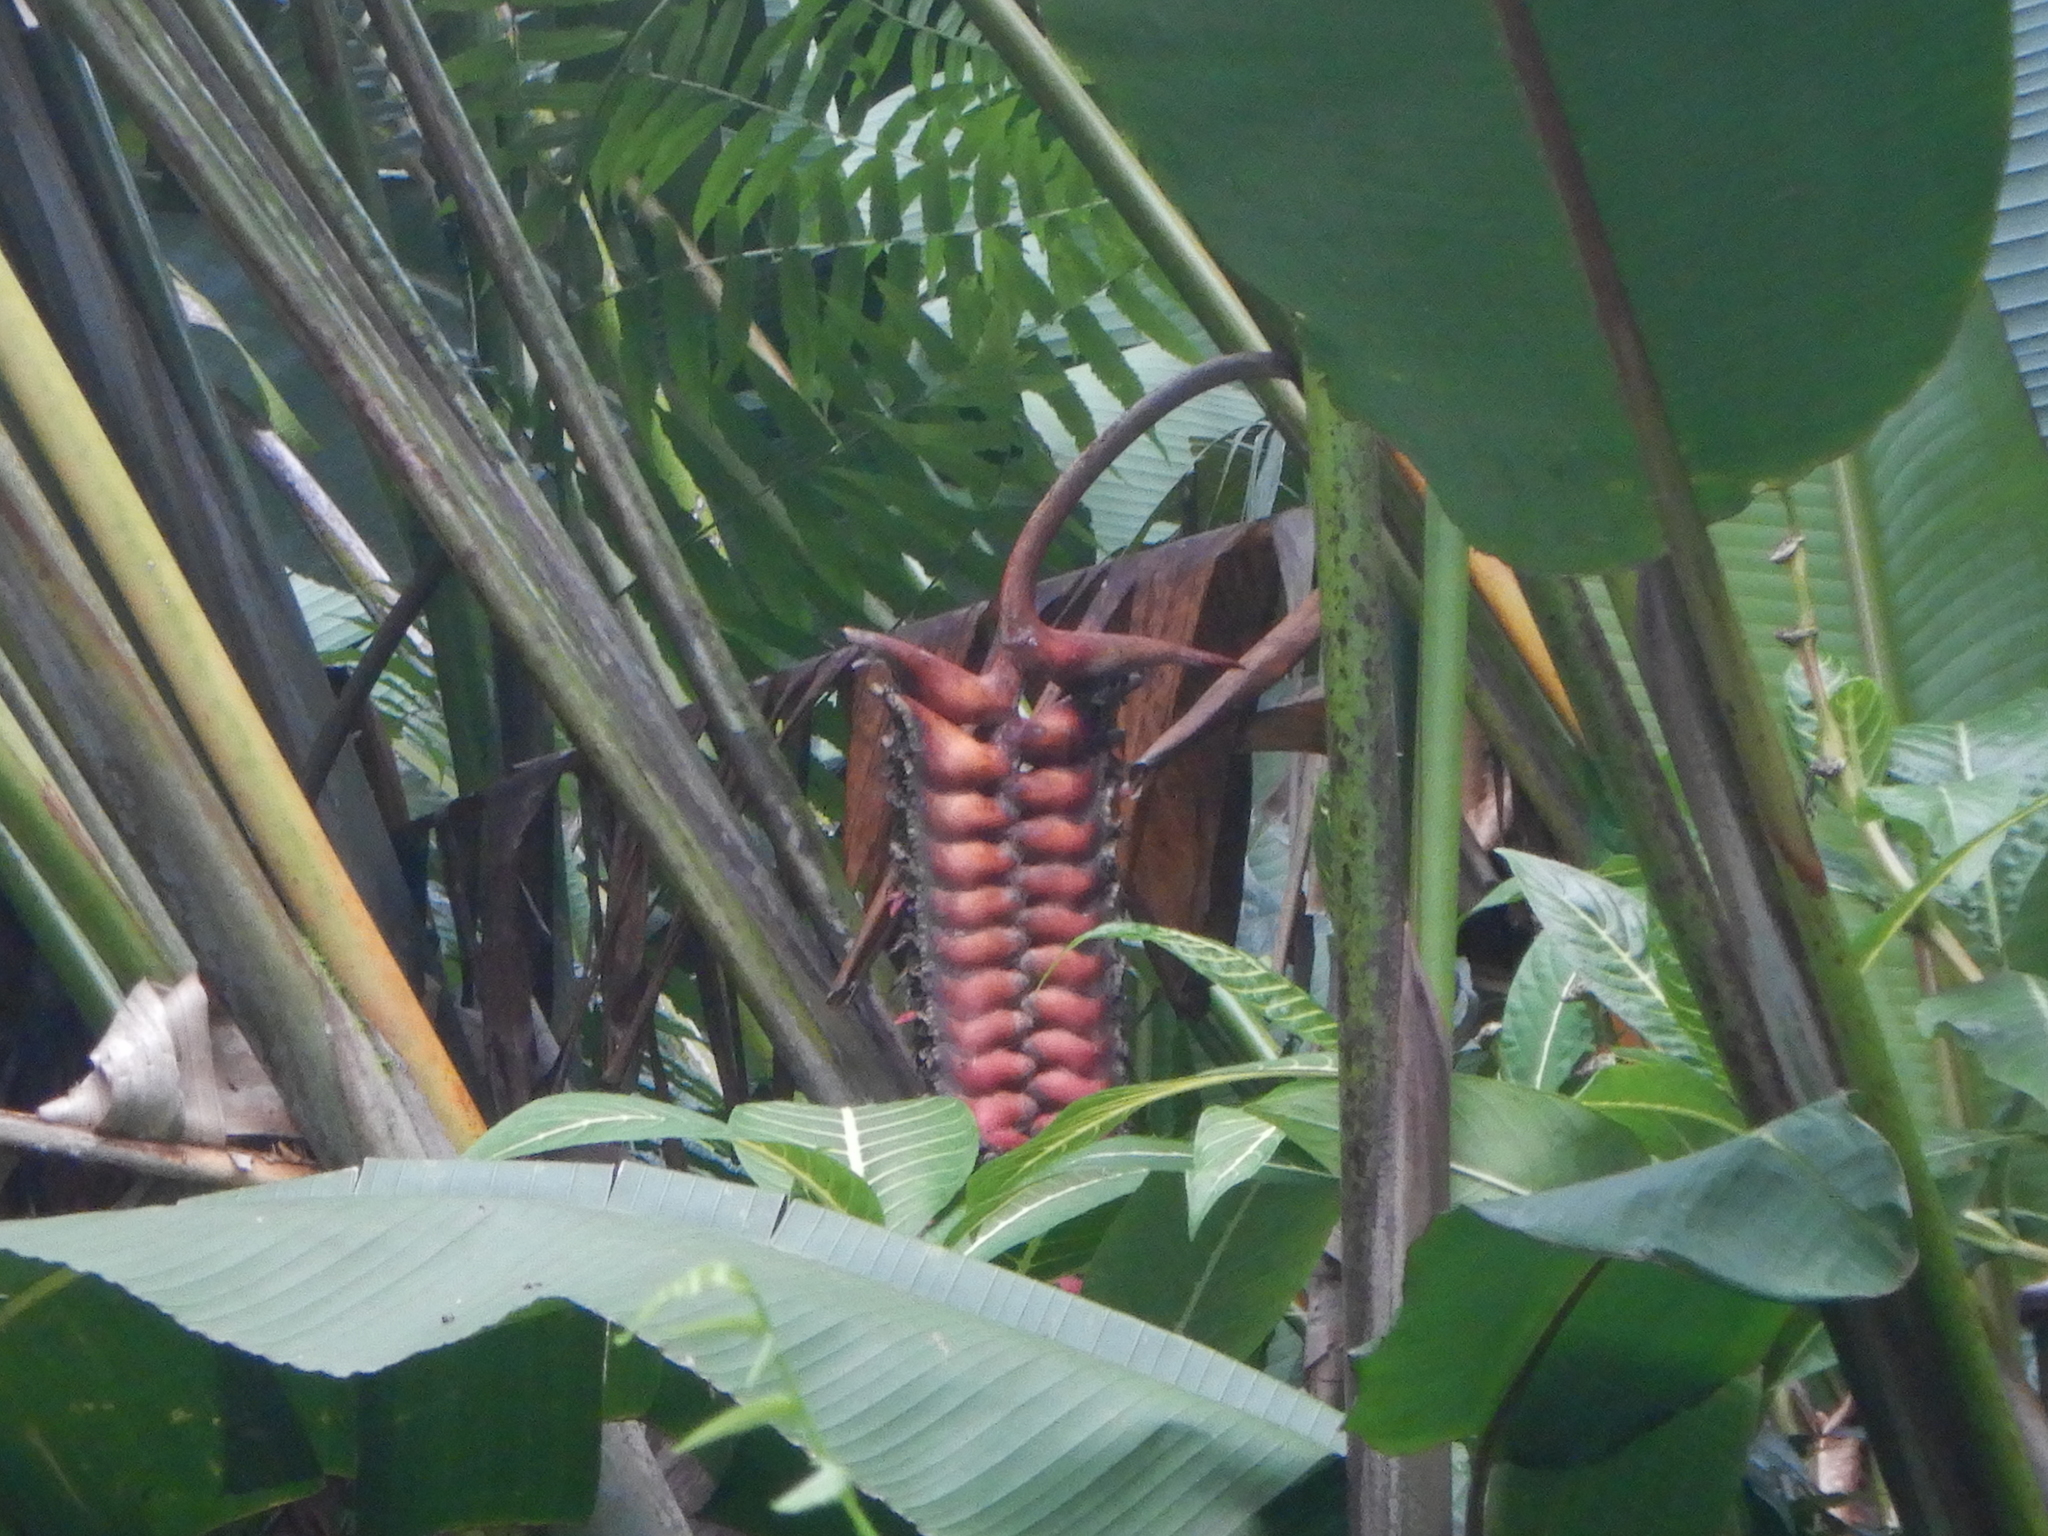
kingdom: Plantae
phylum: Tracheophyta
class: Liliopsida
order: Zingiberales
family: Heliconiaceae
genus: Heliconia
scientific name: Heliconia mariae
